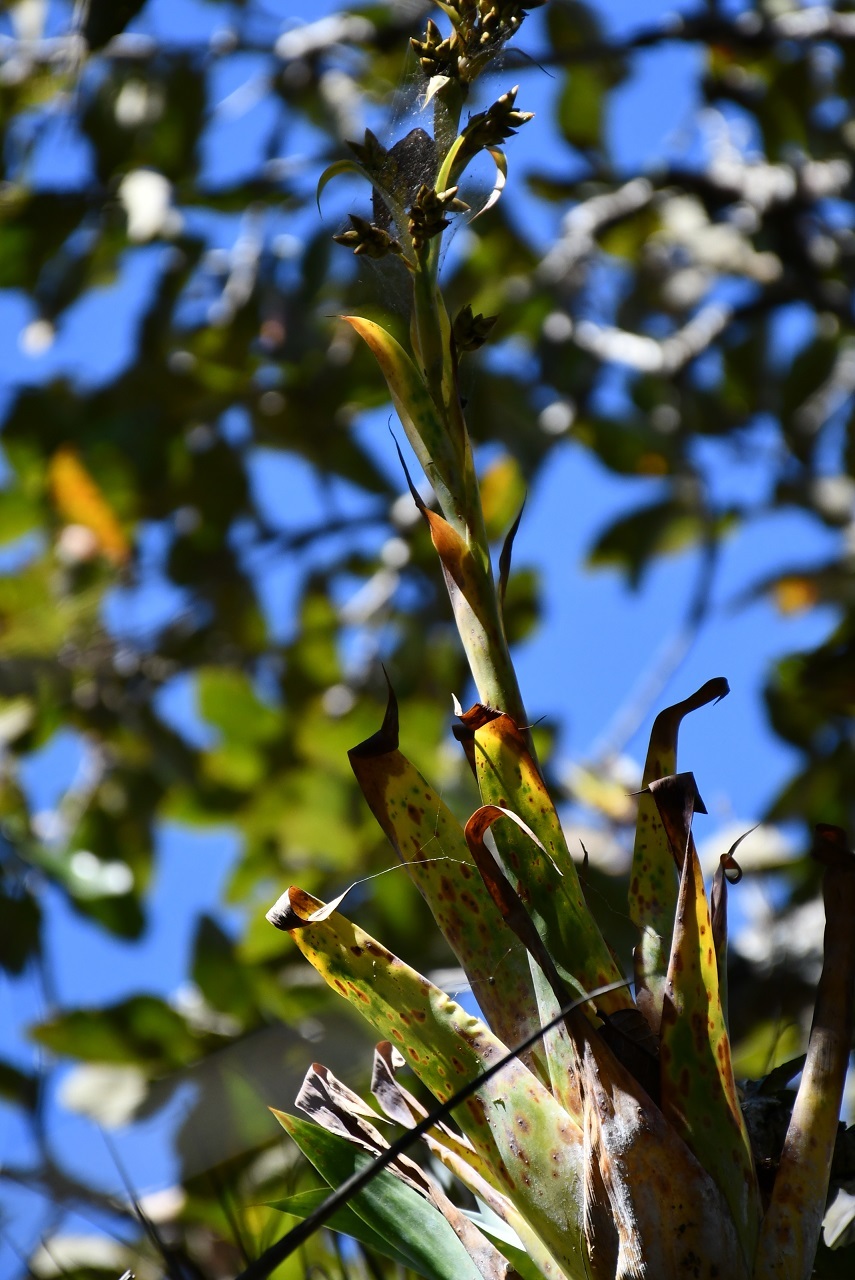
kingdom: Plantae
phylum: Tracheophyta
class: Liliopsida
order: Poales
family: Bromeliaceae
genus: Catopsis
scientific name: Catopsis oerstediana
